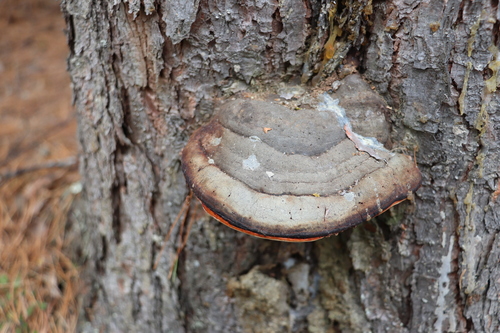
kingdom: Fungi
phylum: Basidiomycota
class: Agaricomycetes
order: Polyporales
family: Fomitopsidaceae
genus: Fomitopsis
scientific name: Fomitopsis pinicola
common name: Red-belted bracket
